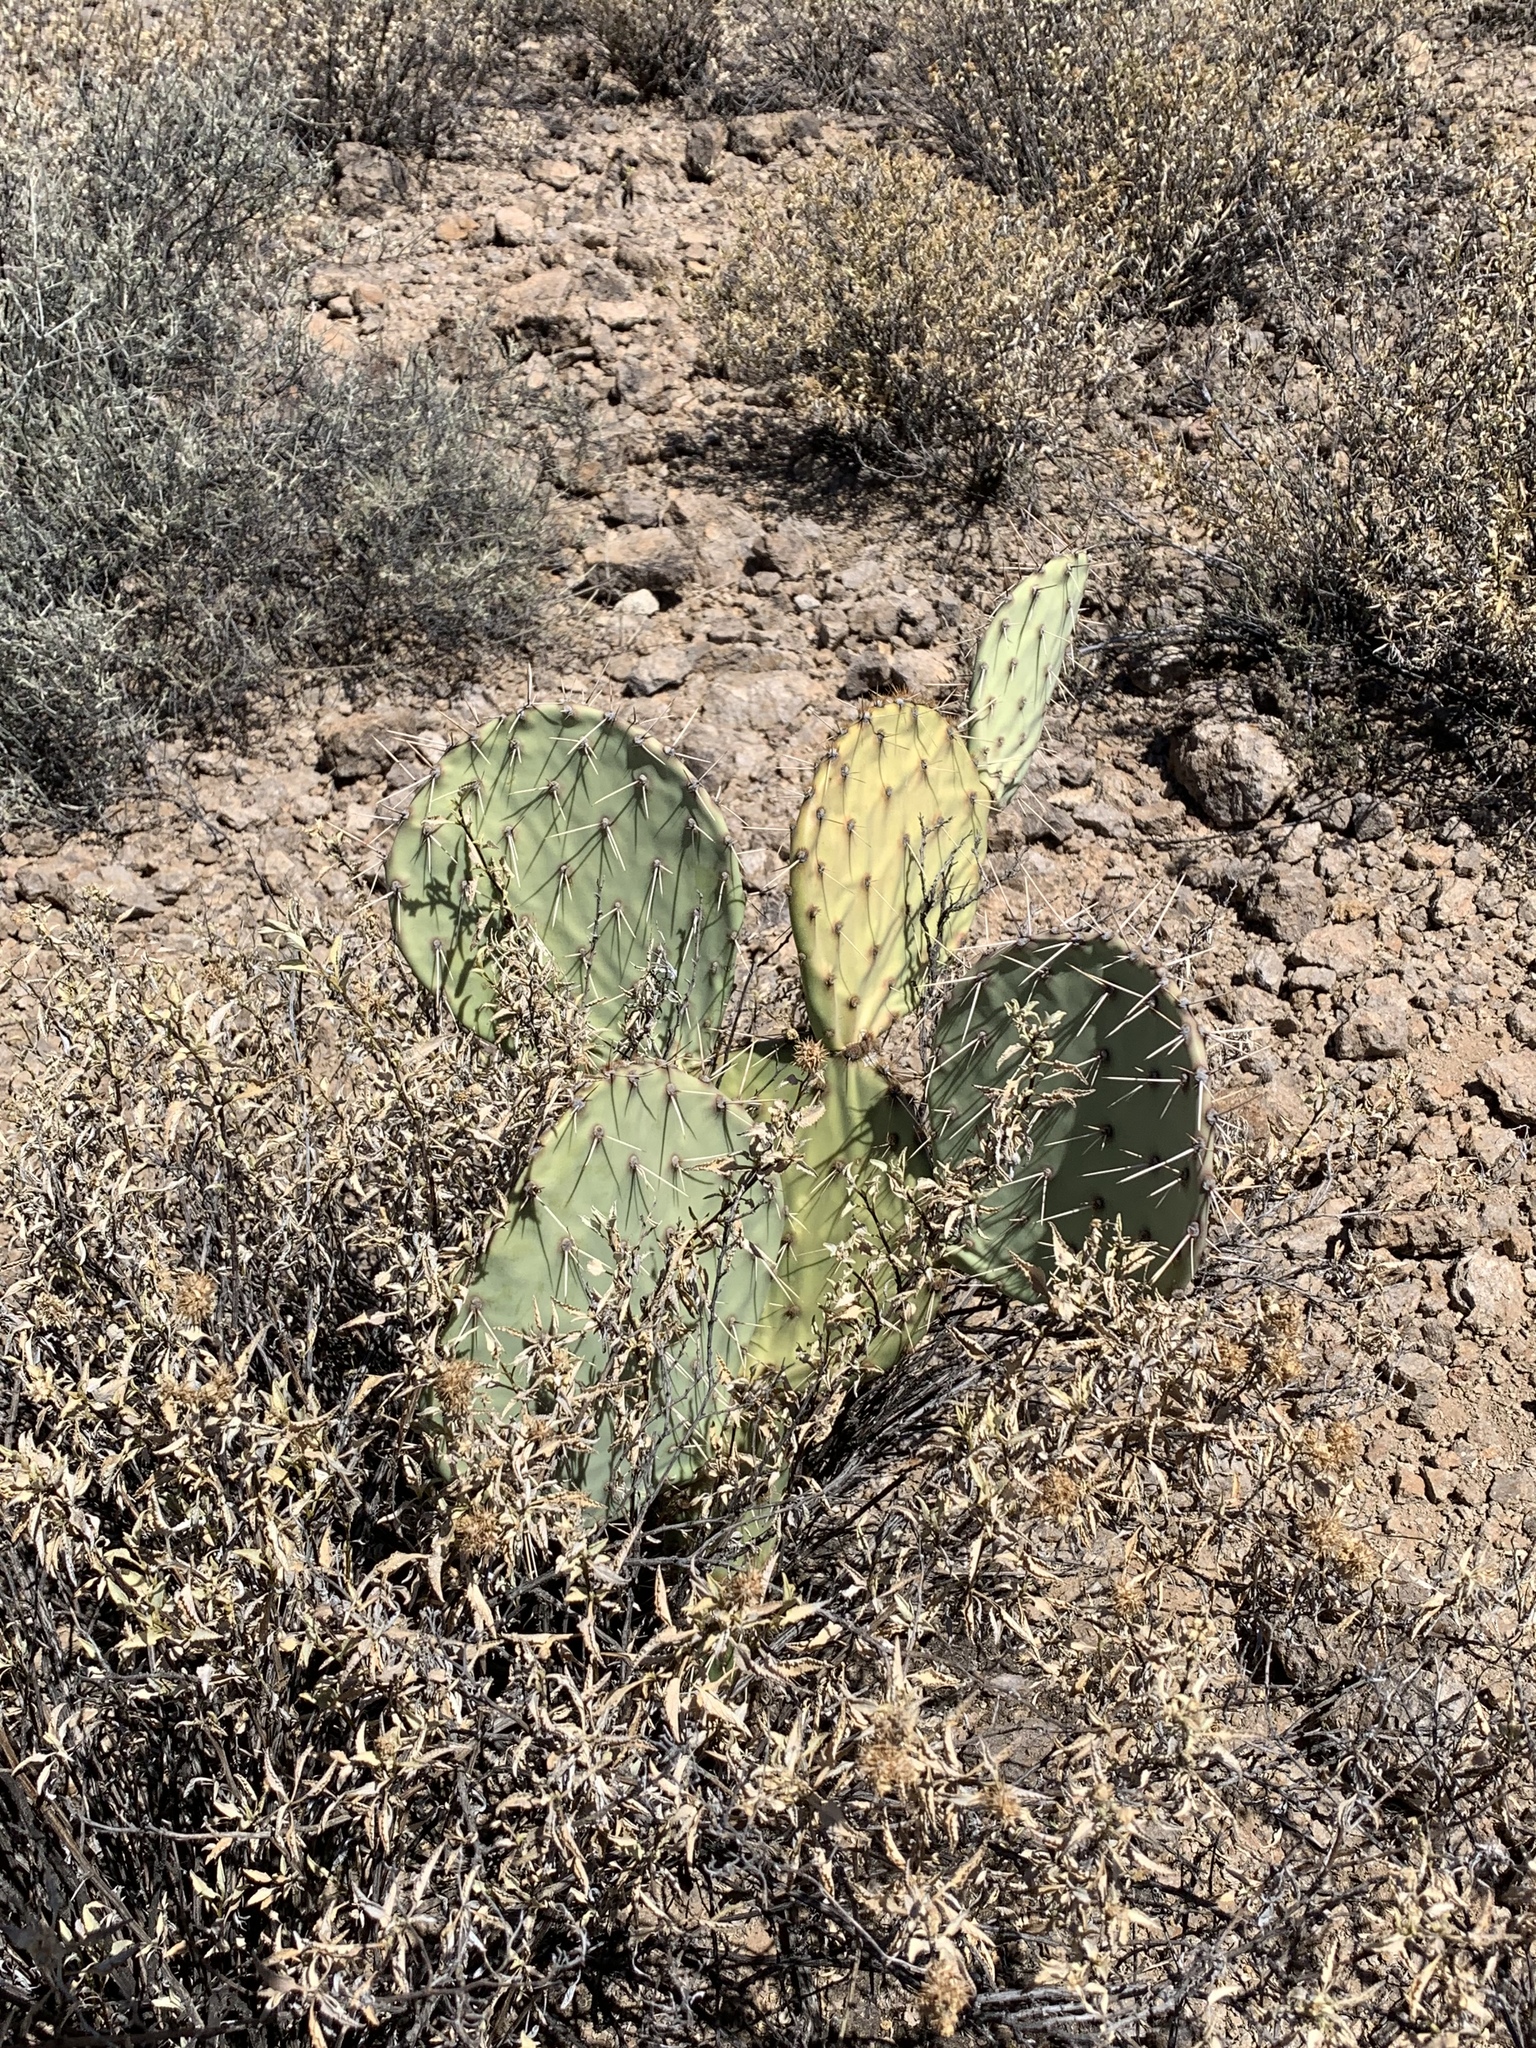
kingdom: Plantae
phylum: Tracheophyta
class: Magnoliopsida
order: Caryophyllales
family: Cactaceae
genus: Opuntia
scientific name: Opuntia engelmannii
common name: Cactus-apple
